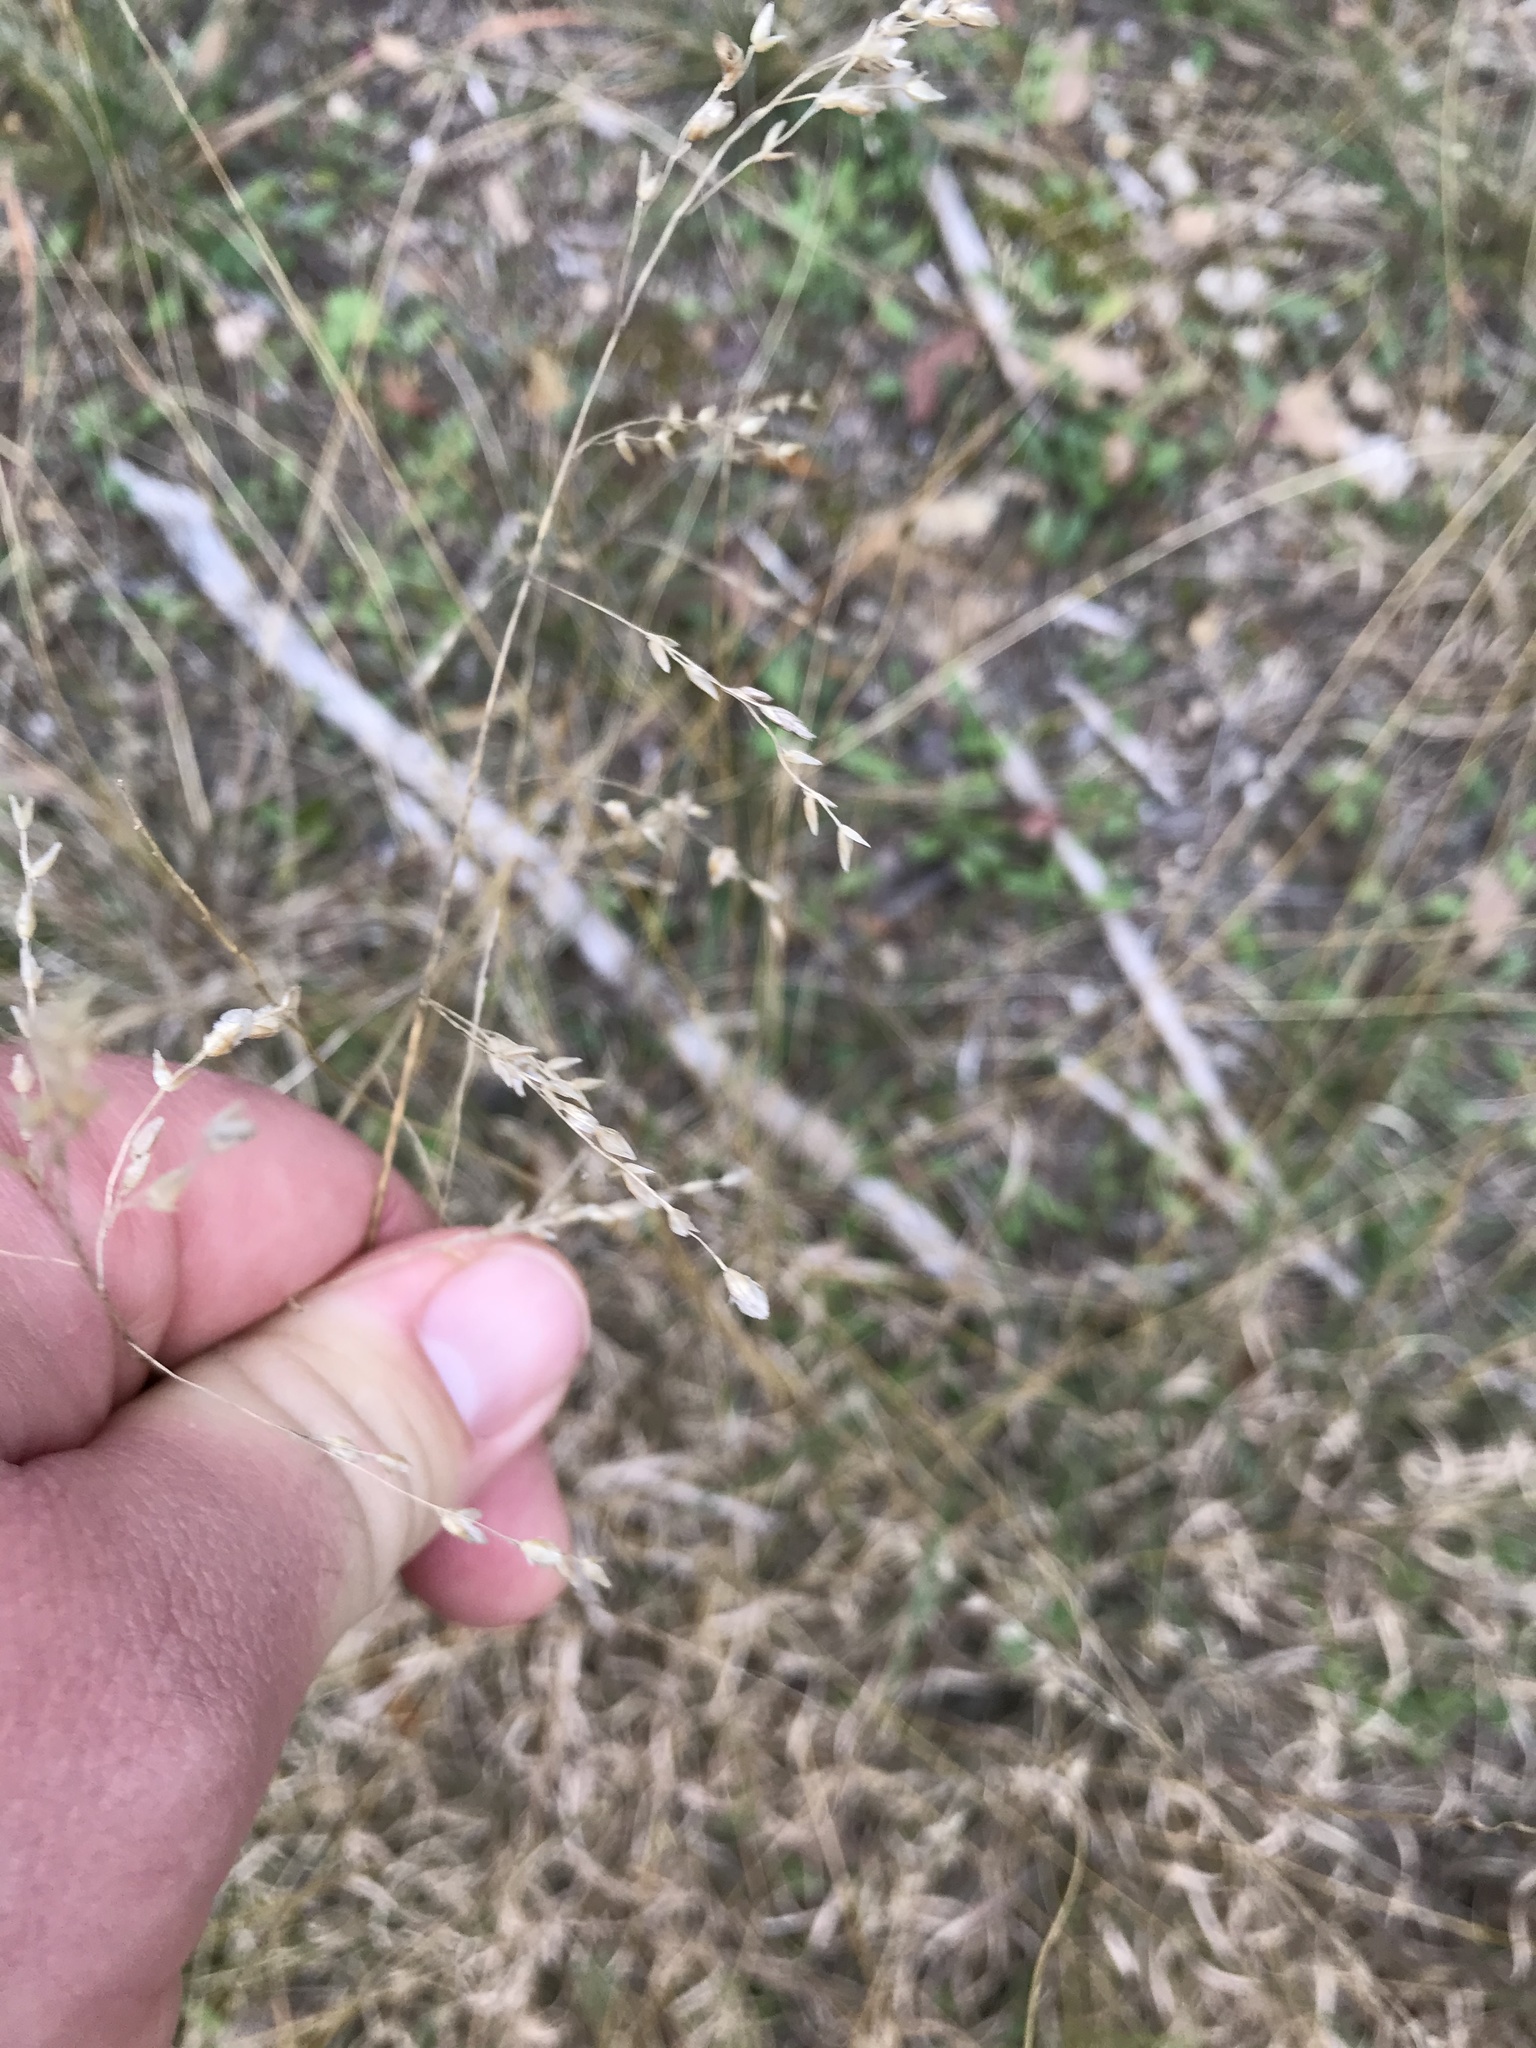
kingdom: Plantae
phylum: Tracheophyta
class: Liliopsida
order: Poales
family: Poaceae
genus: Tridens
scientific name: Tridens texanus
